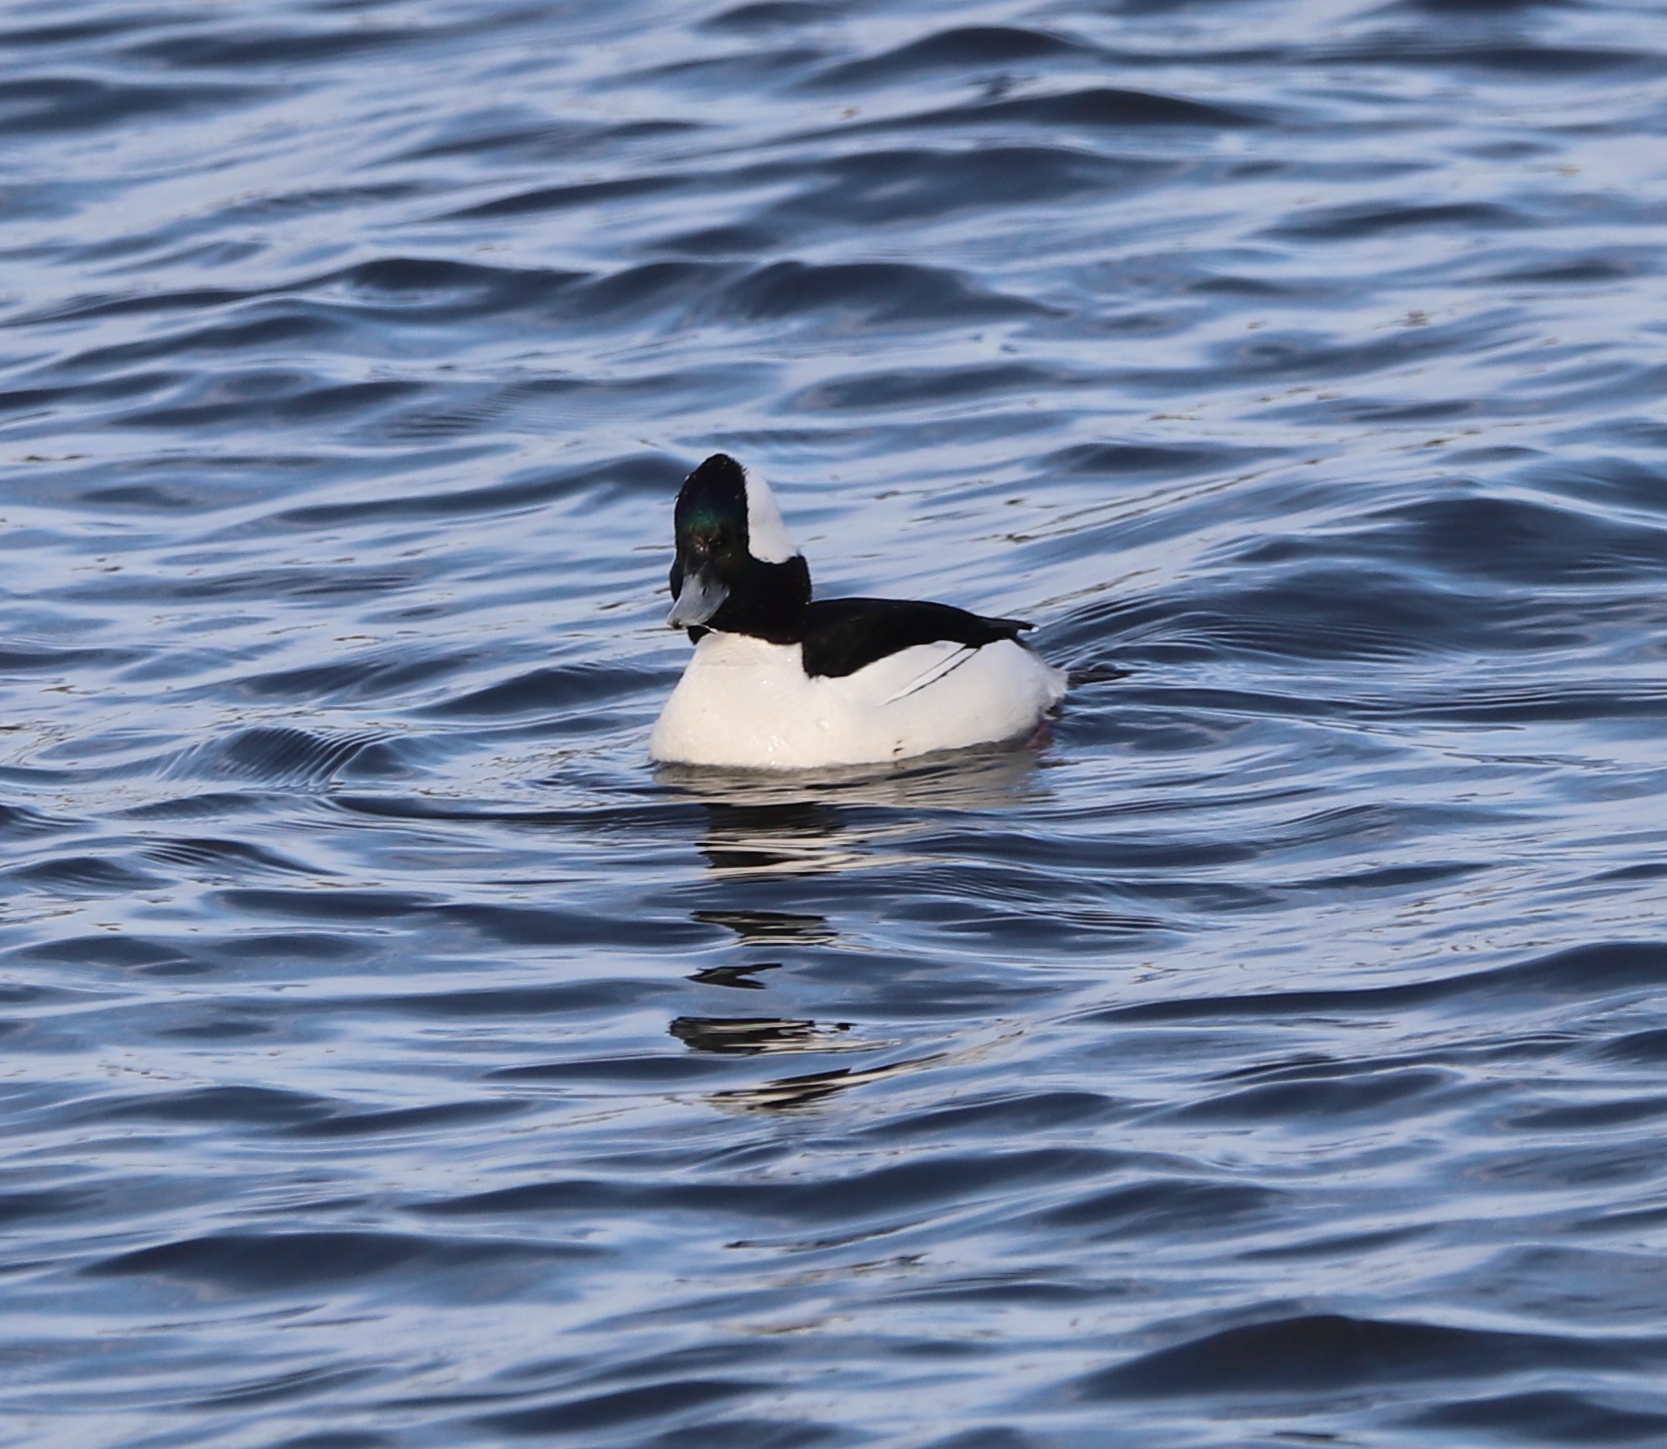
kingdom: Animalia
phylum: Chordata
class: Aves
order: Anseriformes
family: Anatidae
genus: Bucephala
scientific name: Bucephala albeola
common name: Bufflehead
